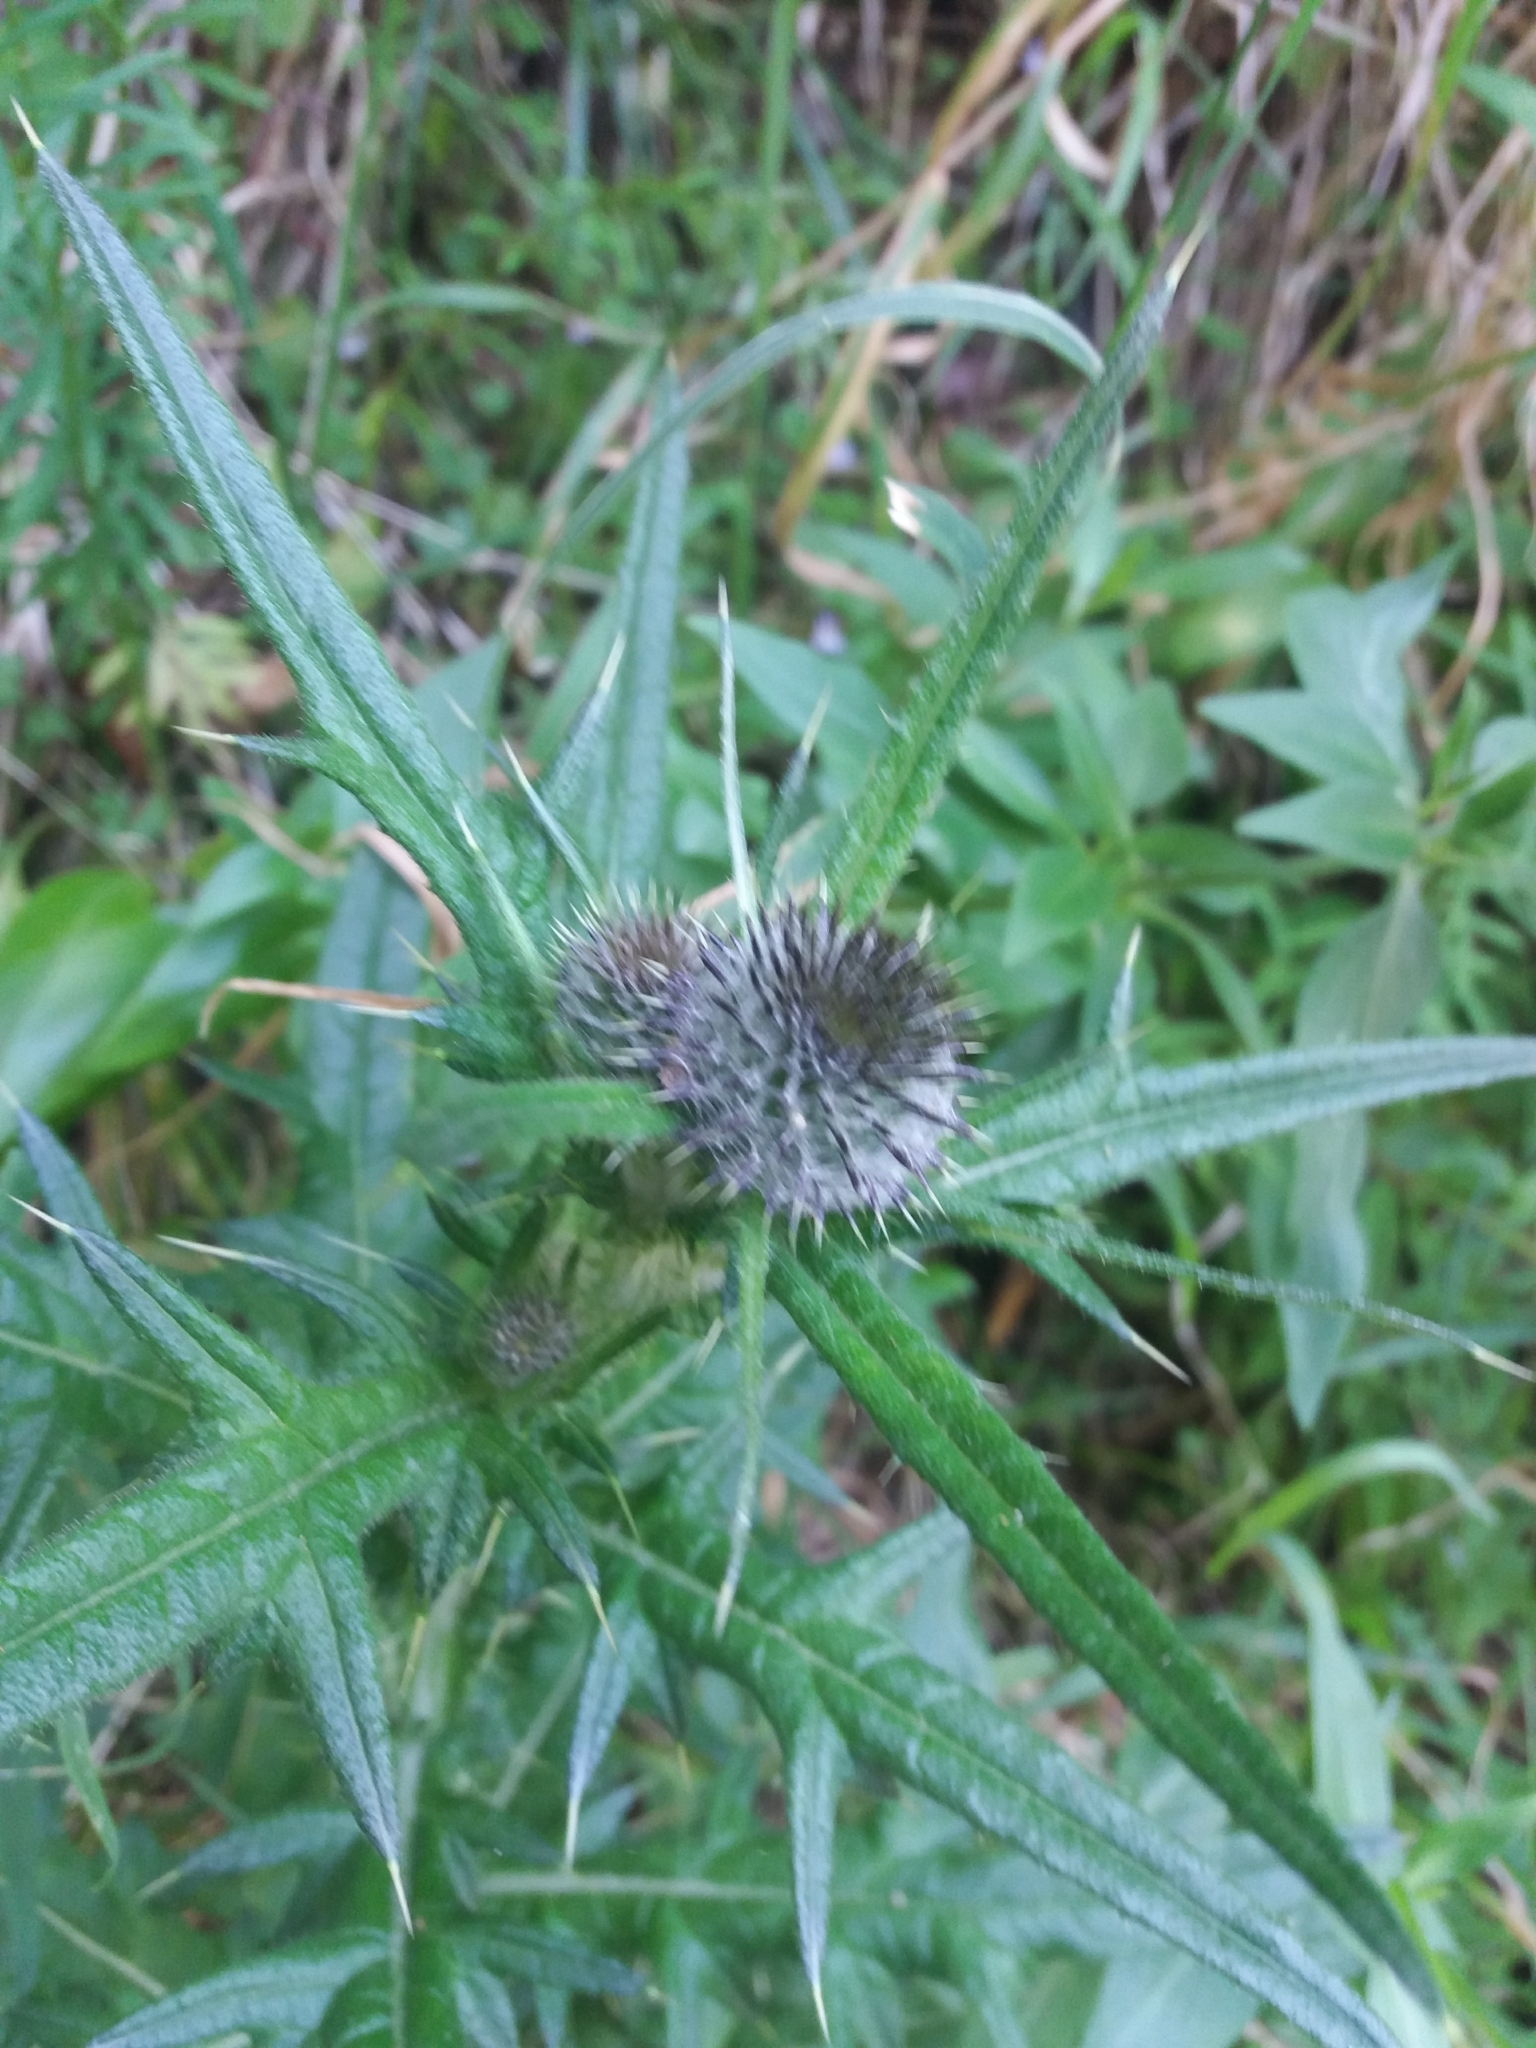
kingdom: Plantae
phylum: Tracheophyta
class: Magnoliopsida
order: Asterales
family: Asteraceae
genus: Cirsium
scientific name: Cirsium vulgare
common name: Bull thistle
